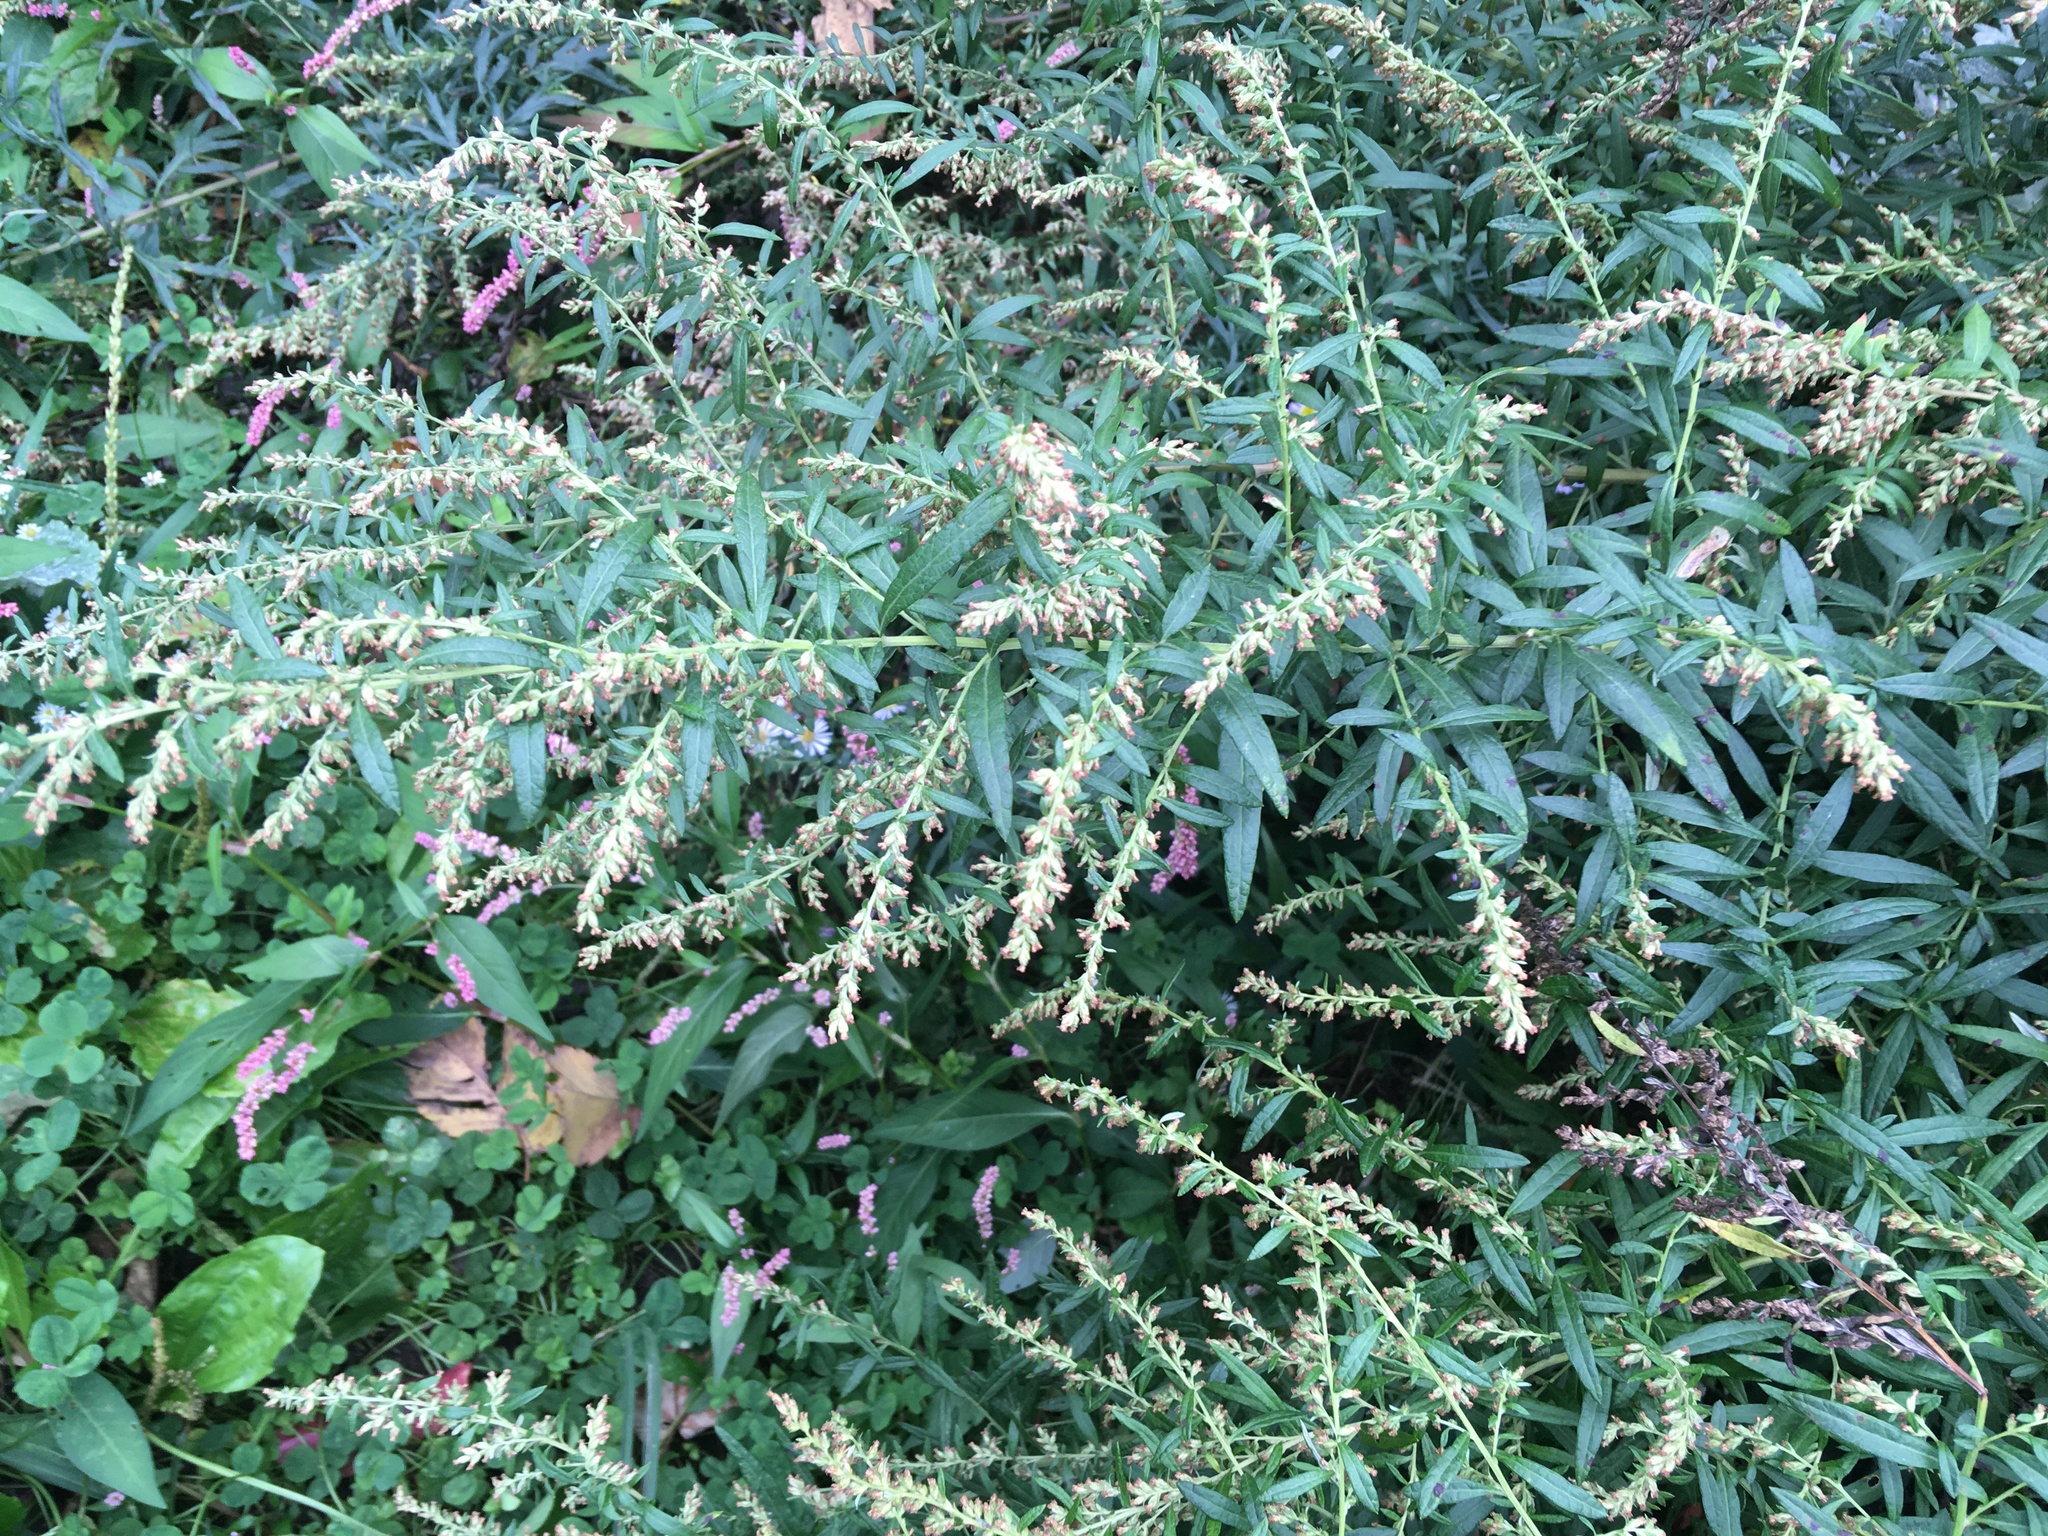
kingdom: Plantae
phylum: Tracheophyta
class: Magnoliopsida
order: Asterales
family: Asteraceae
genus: Artemisia
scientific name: Artemisia vulgaris
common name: Mugwort
